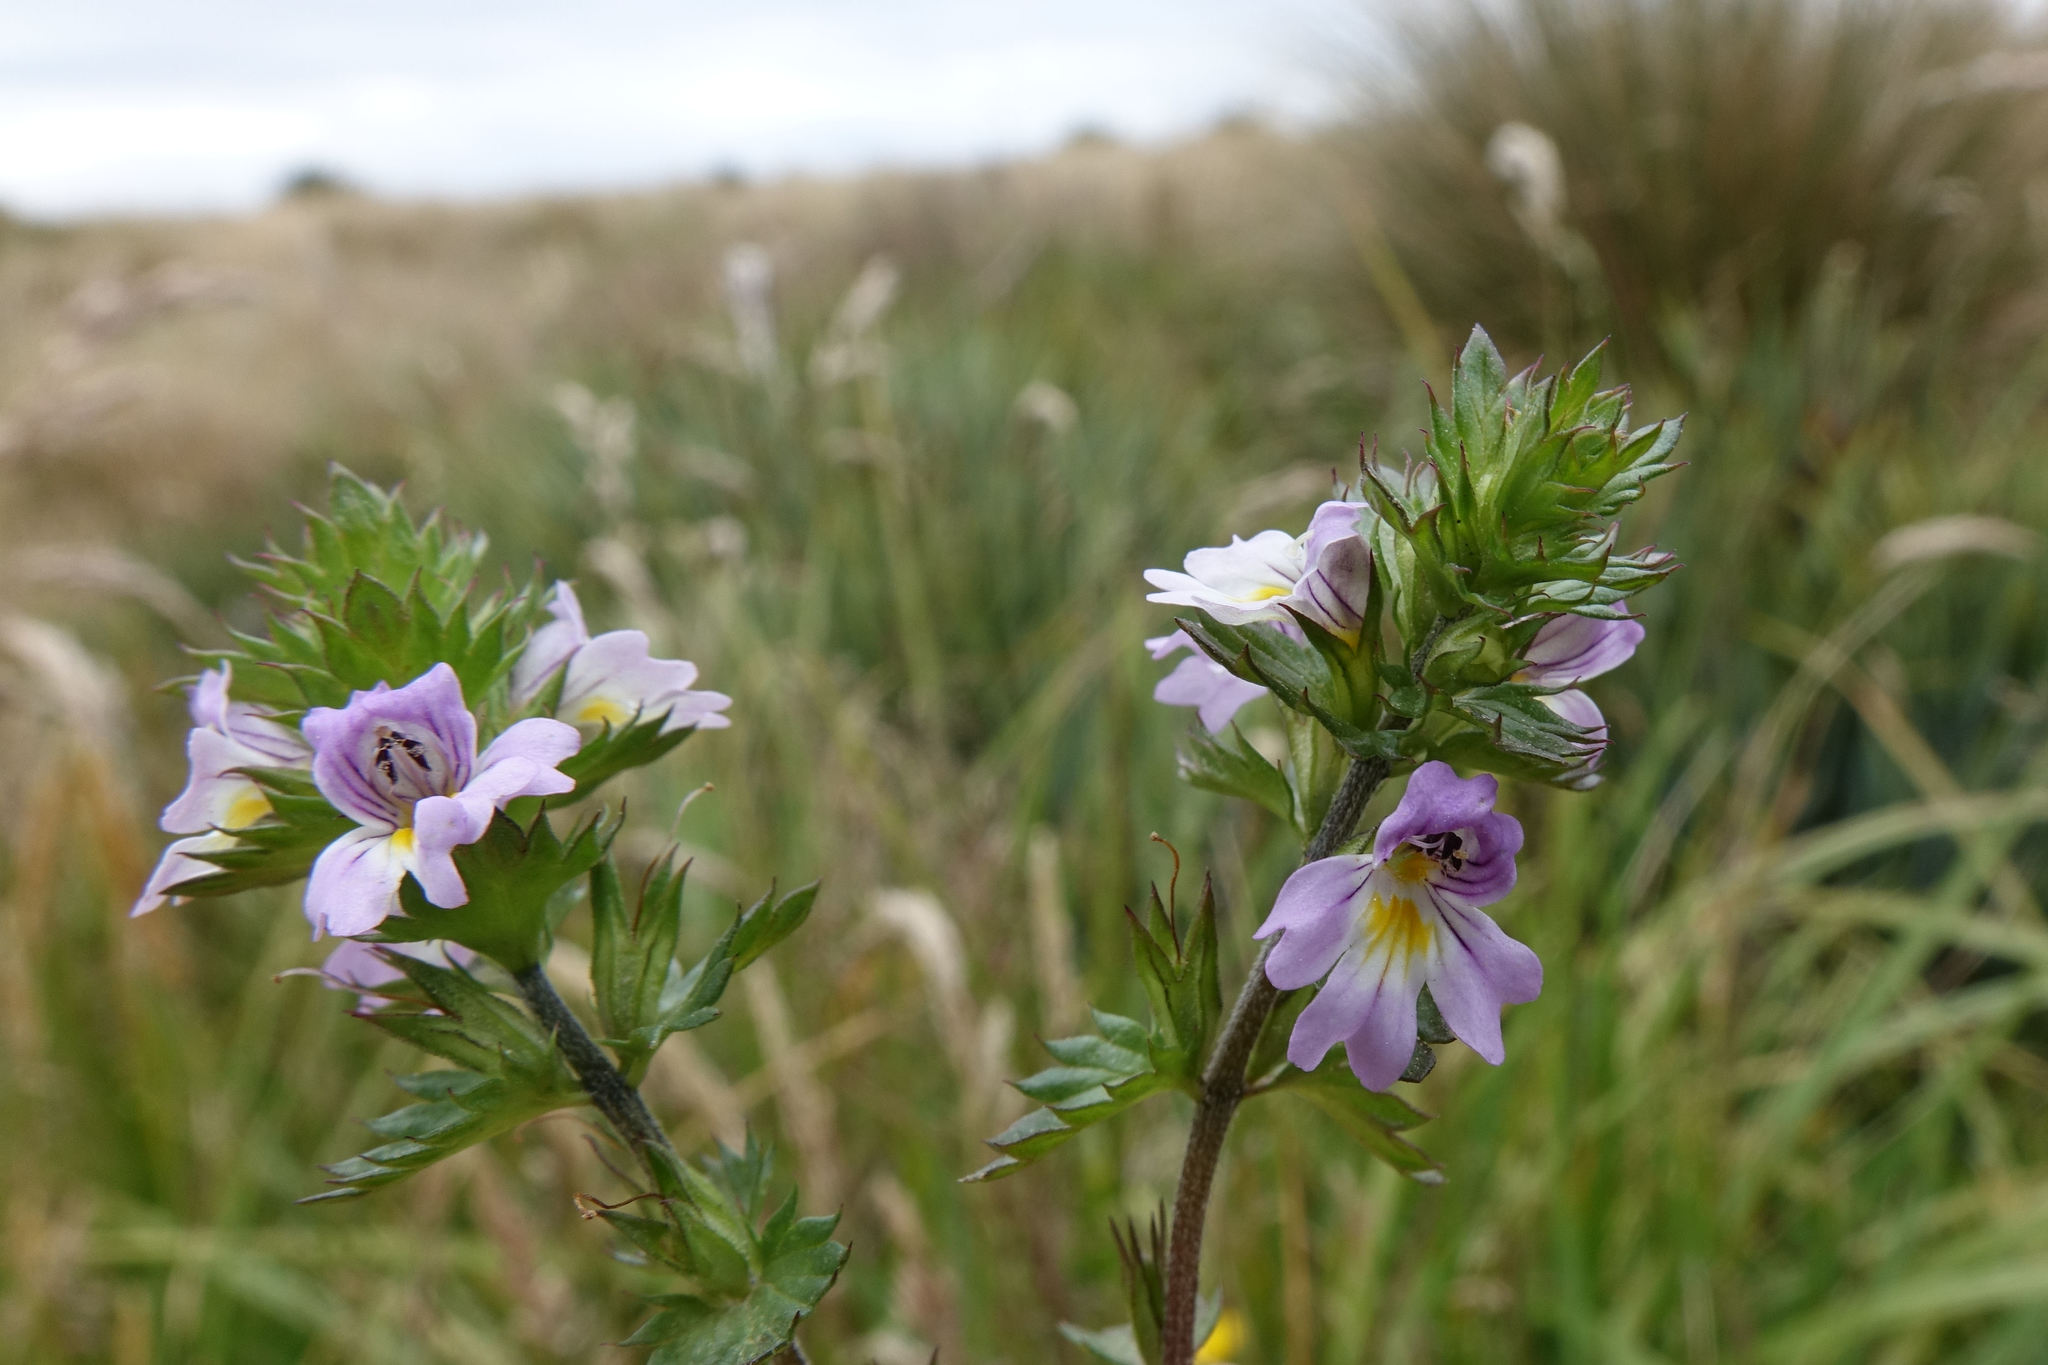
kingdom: Plantae
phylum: Tracheophyta
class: Magnoliopsida
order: Lamiales
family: Orobanchaceae
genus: Euphrasia
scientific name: Euphrasia nemorosa
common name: Common eyebright
